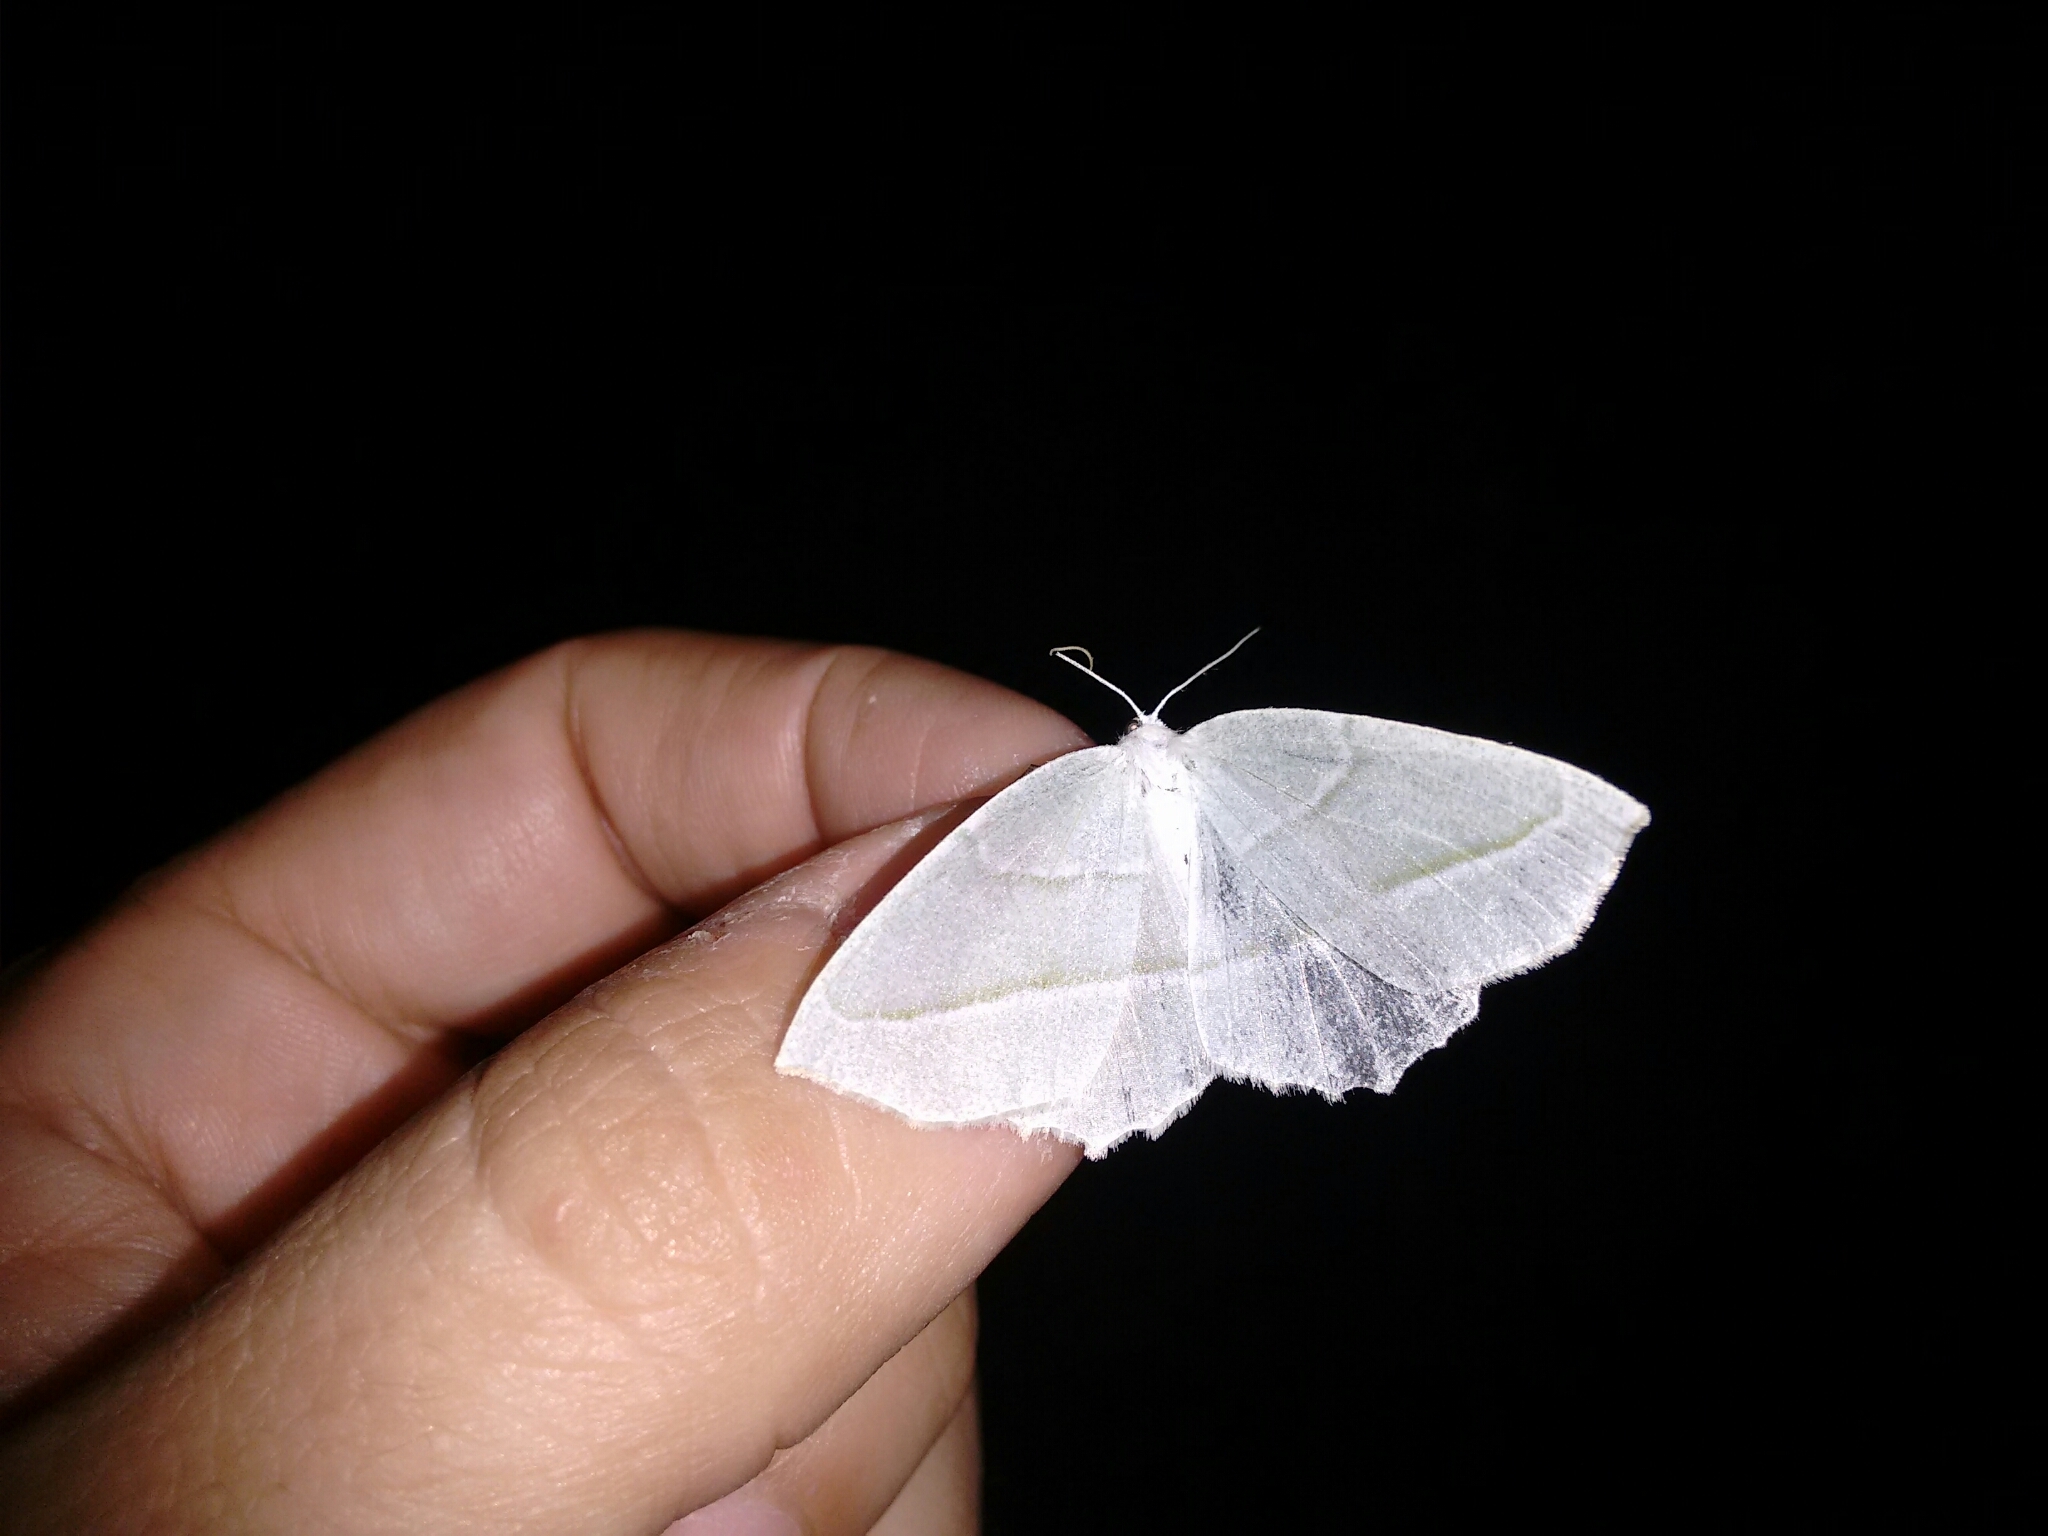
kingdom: Animalia
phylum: Arthropoda
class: Insecta
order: Lepidoptera
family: Geometridae
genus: Campaea
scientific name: Campaea perlata
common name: Fringed looper
